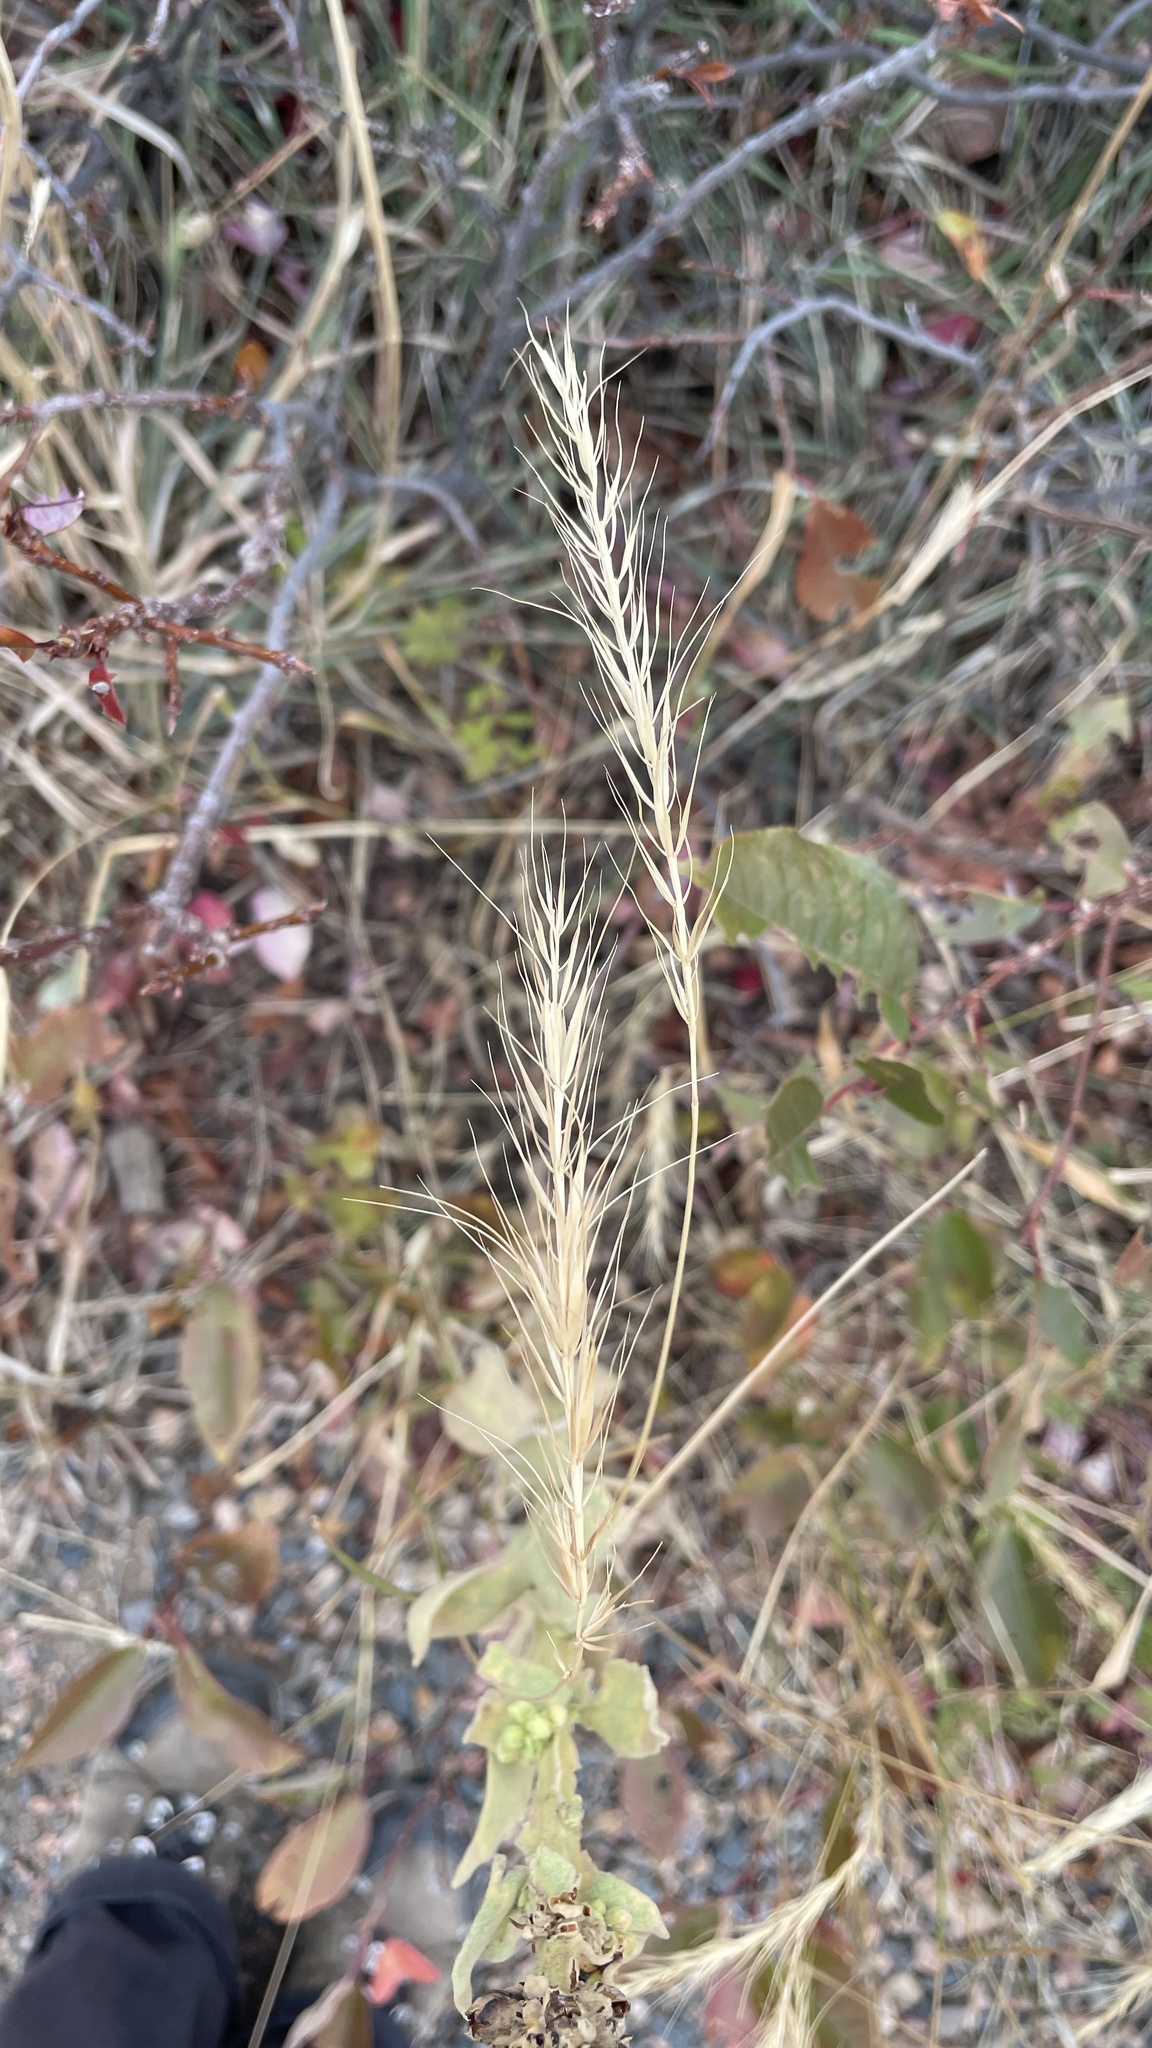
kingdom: Plantae
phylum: Tracheophyta
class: Liliopsida
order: Poales
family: Poaceae
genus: Elymus
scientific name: Elymus canadensis
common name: Canada wild rye
